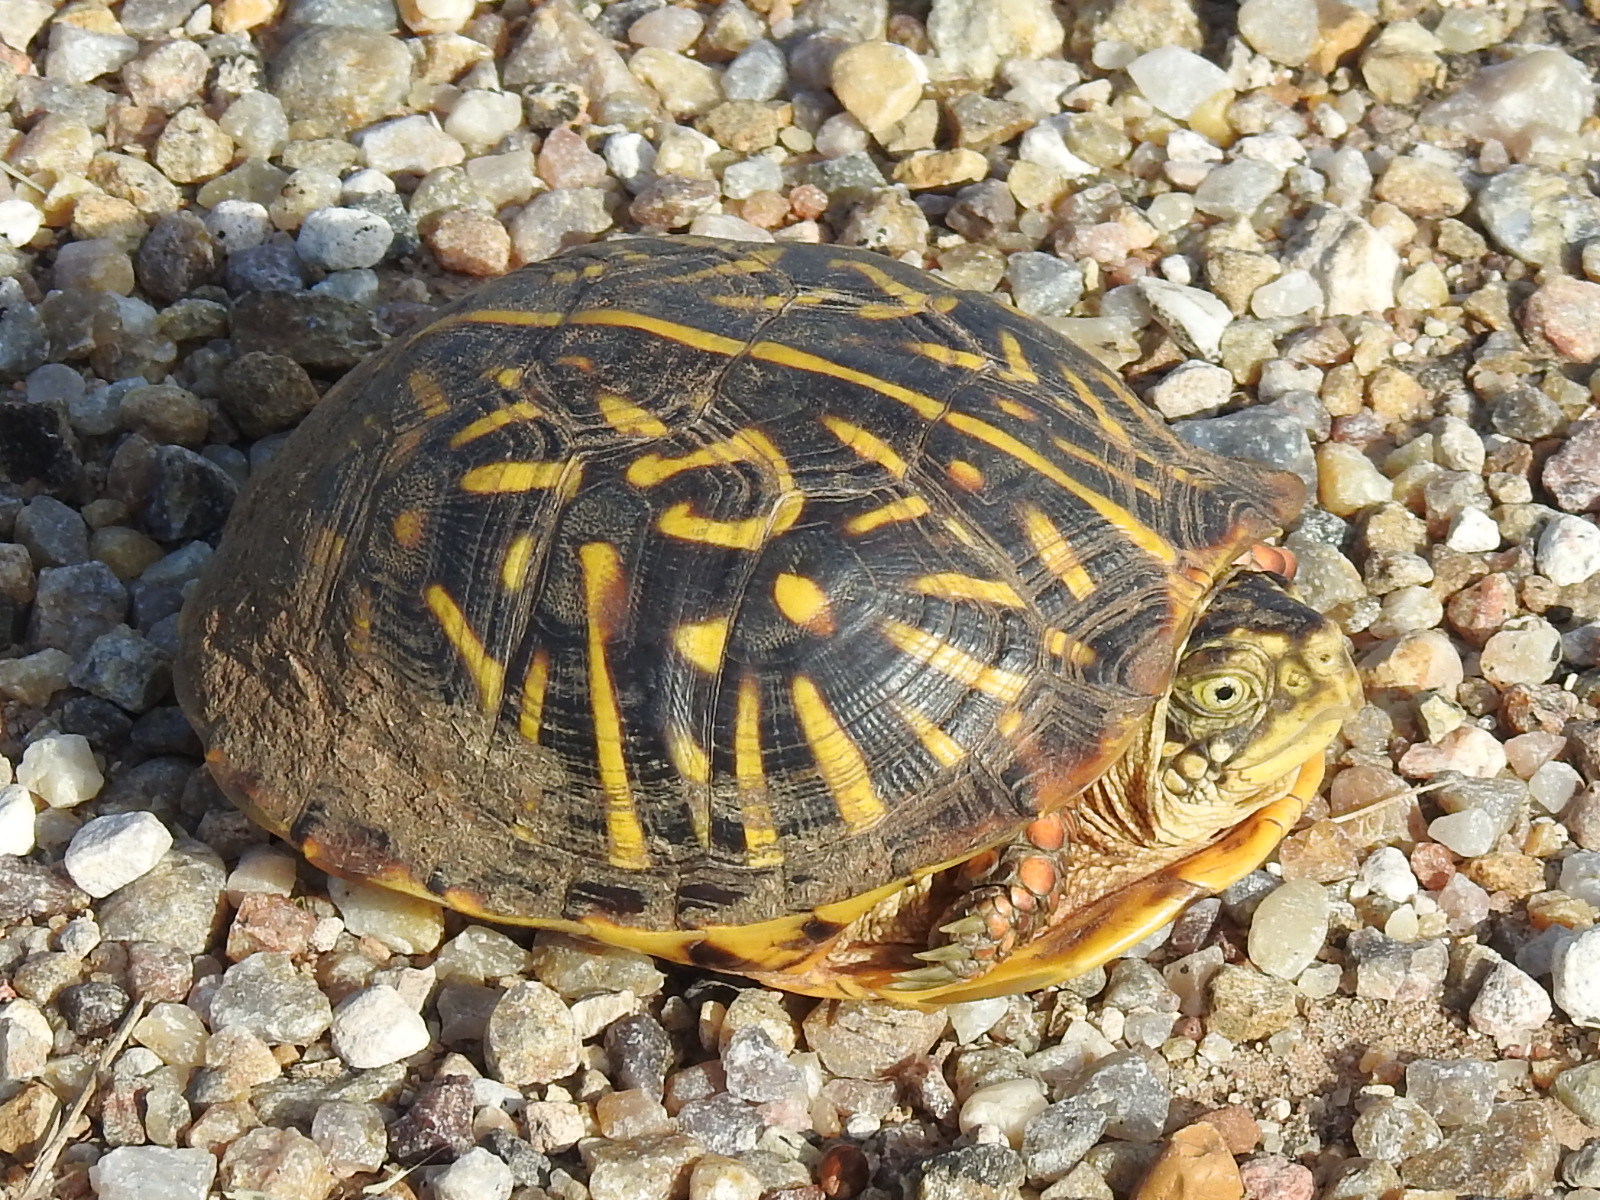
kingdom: Animalia
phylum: Chordata
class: Testudines
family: Emydidae
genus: Terrapene
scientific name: Terrapene ornata
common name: Western box turtle
